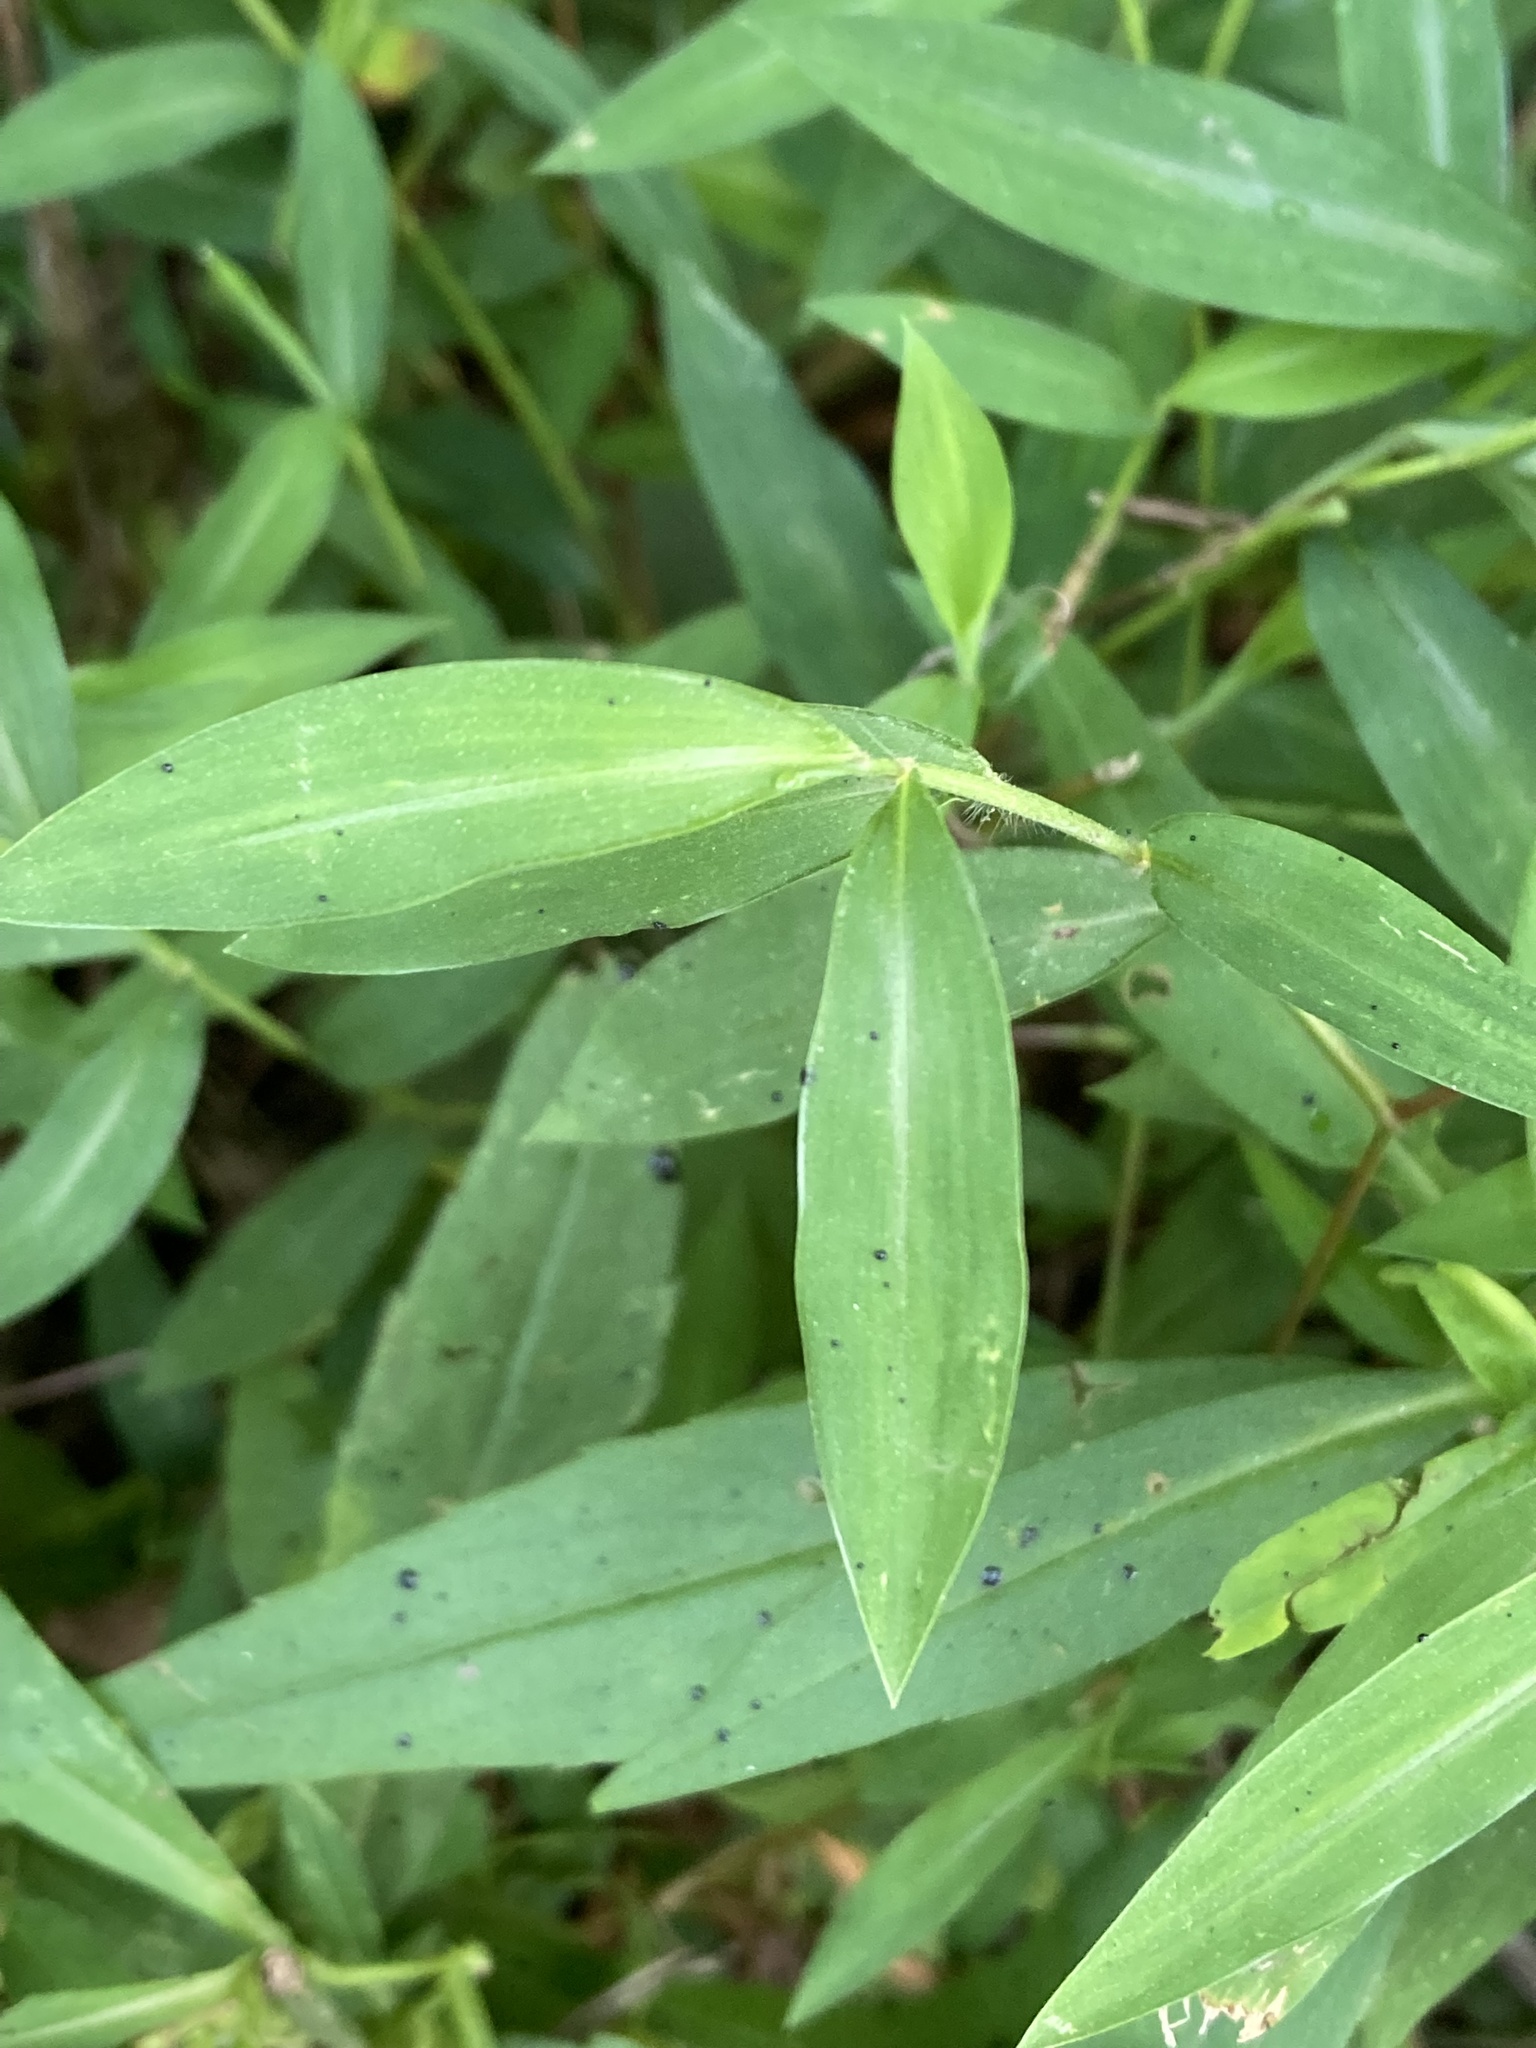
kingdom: Plantae
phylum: Tracheophyta
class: Liliopsida
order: Poales
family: Poaceae
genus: Microstegium
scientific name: Microstegium vimineum
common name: Japanese stiltgrass
